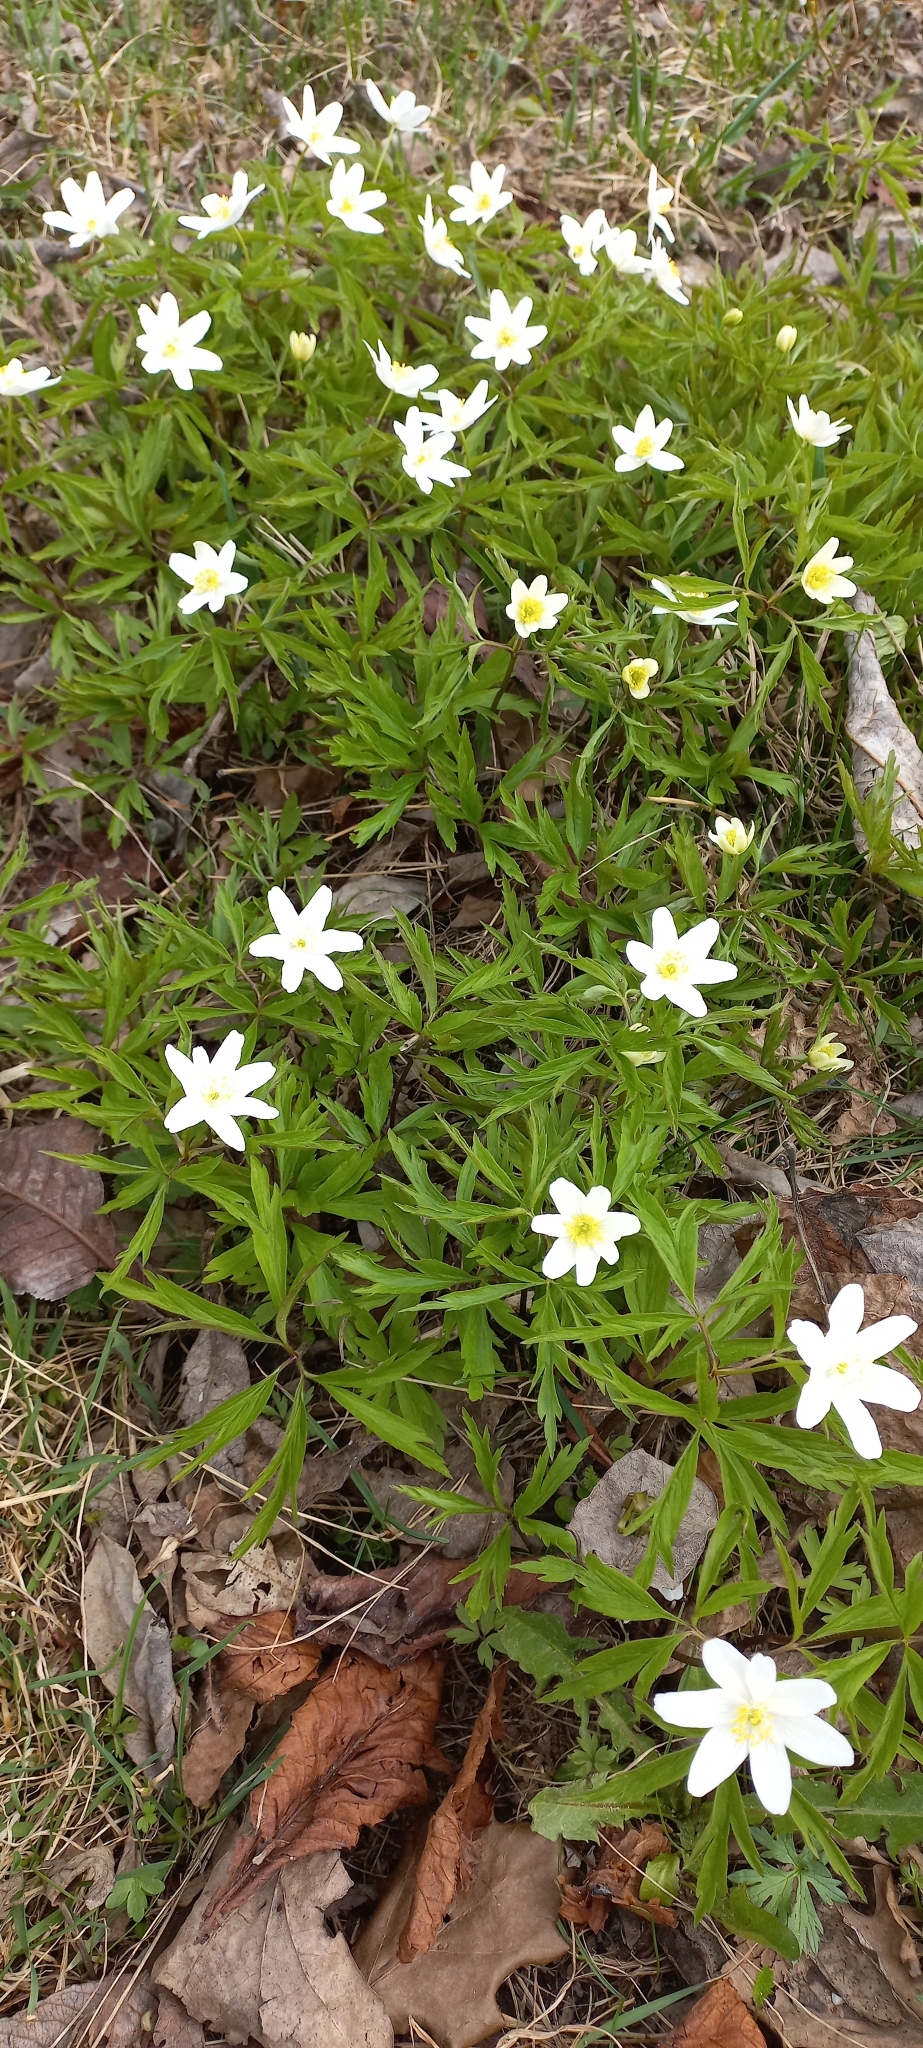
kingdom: Plantae
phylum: Tracheophyta
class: Magnoliopsida
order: Ranunculales
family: Ranunculaceae
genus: Anemone
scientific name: Anemone nemorosa
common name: Wood anemone
